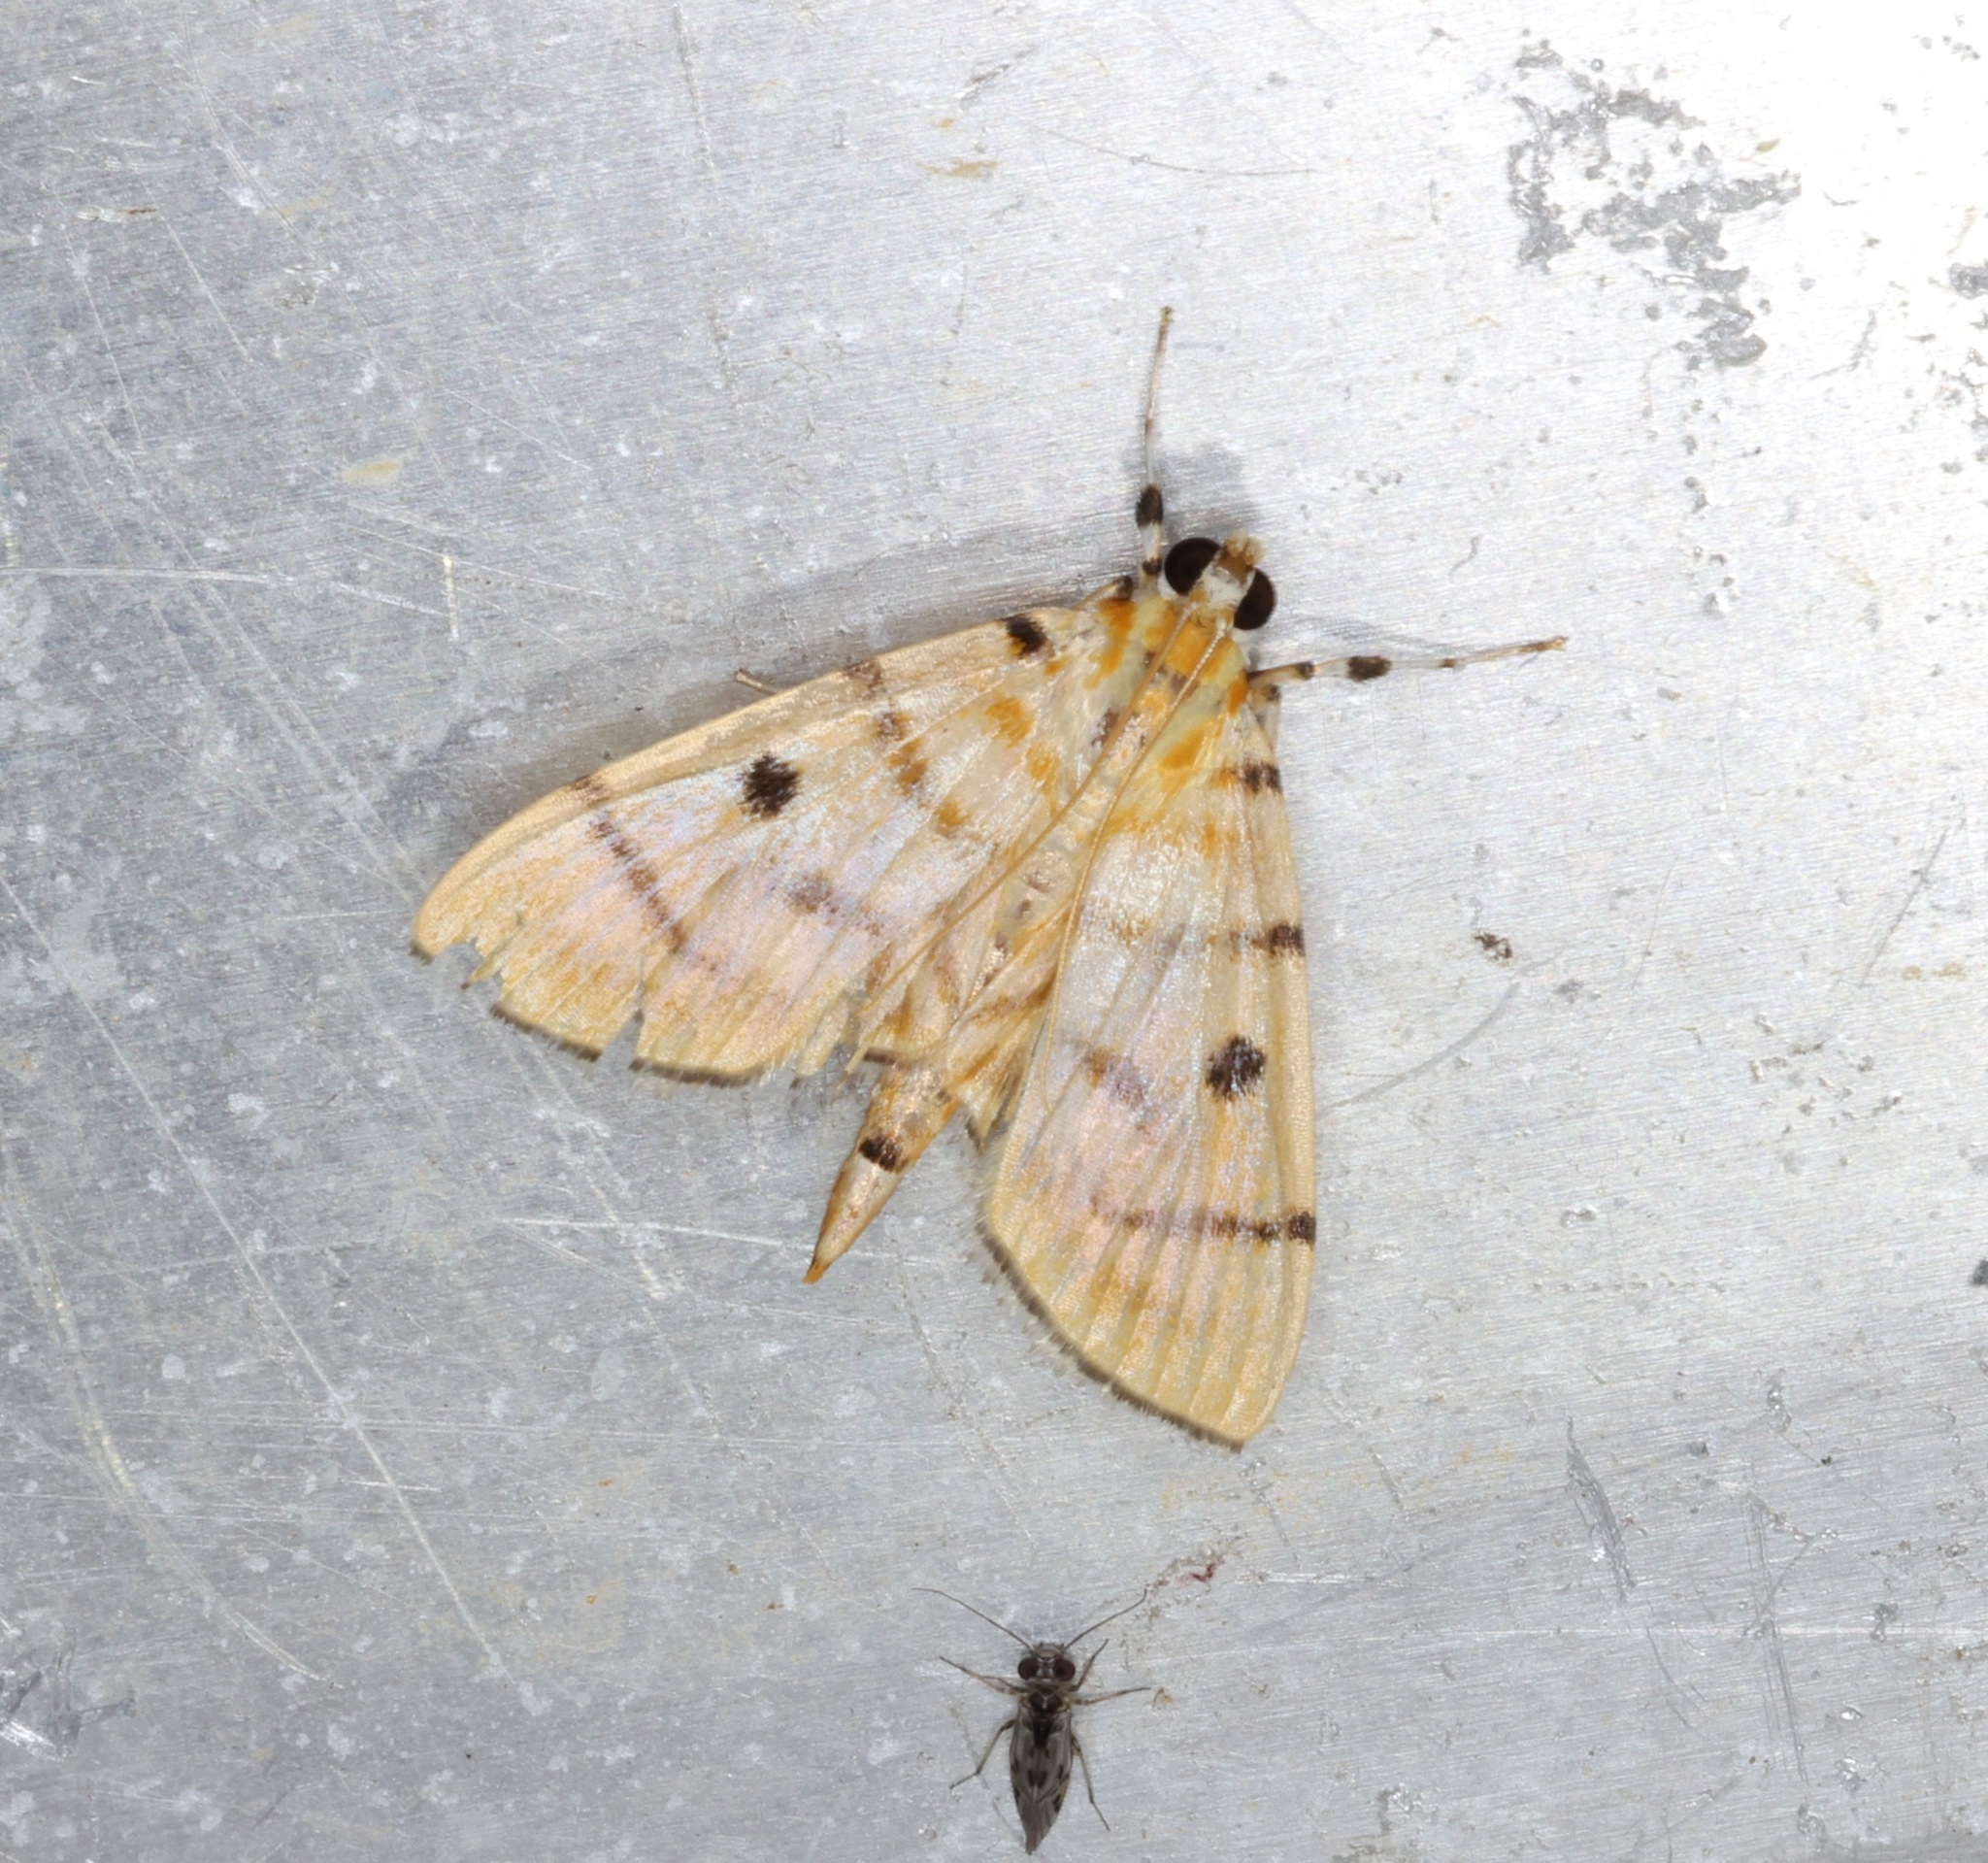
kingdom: Animalia
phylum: Arthropoda
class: Insecta
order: Lepidoptera
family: Crambidae
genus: Orthospila
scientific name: Orthospila orissusalis
